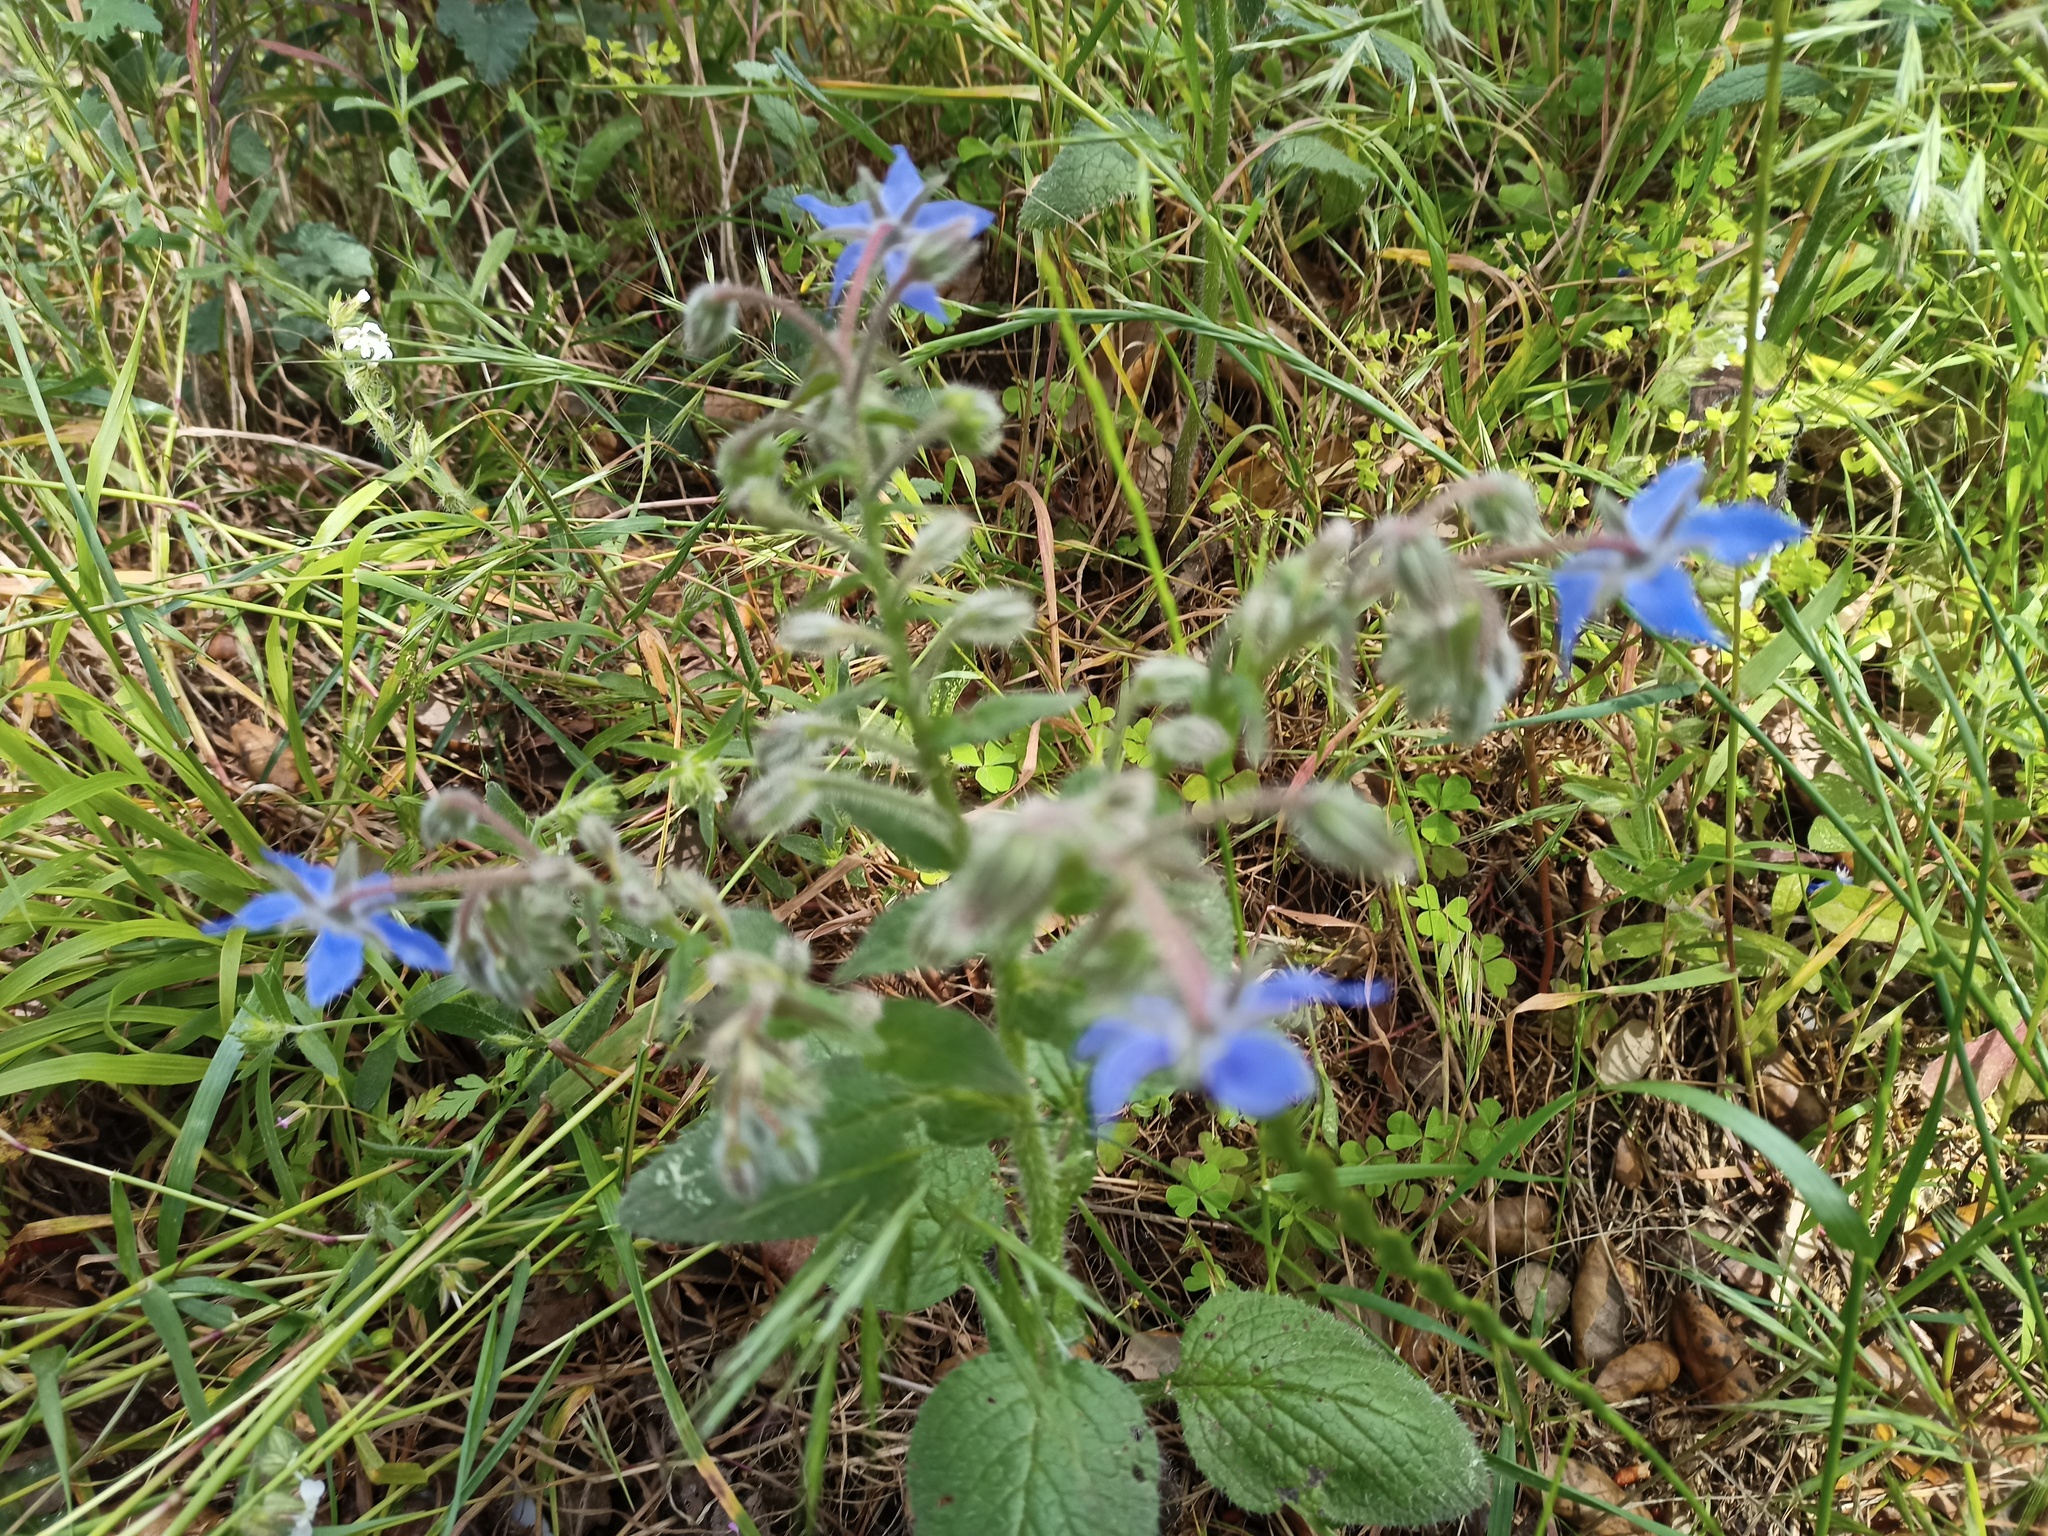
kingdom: Plantae
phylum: Tracheophyta
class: Magnoliopsida
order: Boraginales
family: Boraginaceae
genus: Borago
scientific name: Borago officinalis
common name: Borage
